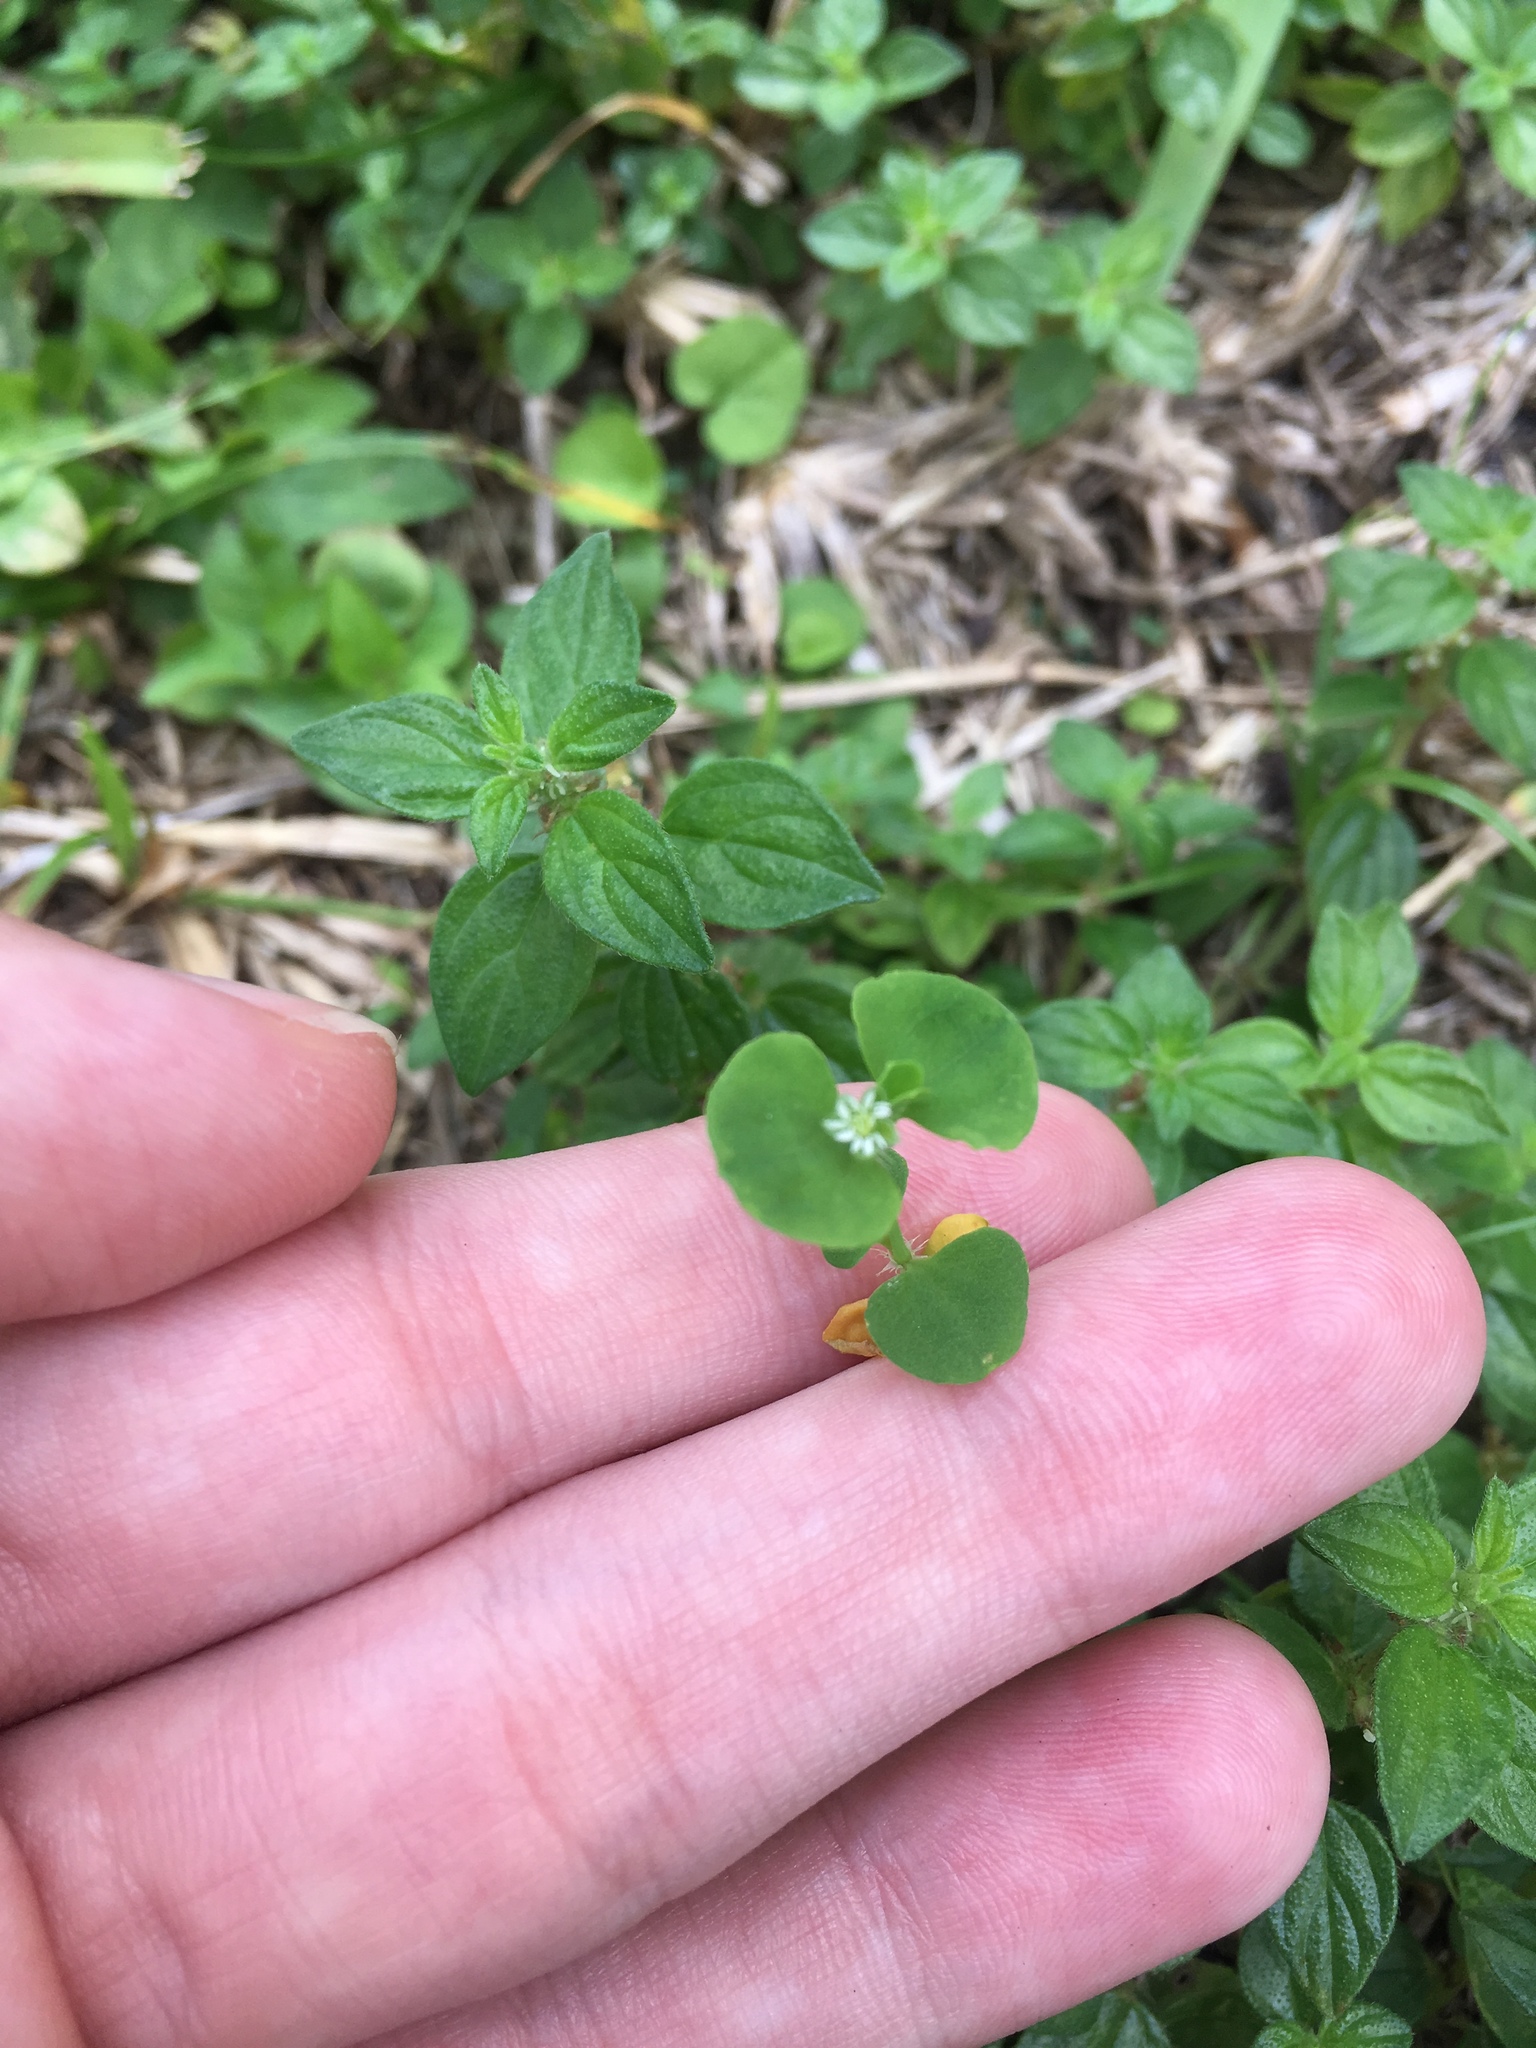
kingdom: Plantae
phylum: Tracheophyta
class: Magnoliopsida
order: Caryophyllales
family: Caryophyllaceae
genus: Drymaria
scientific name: Drymaria cordata
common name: Whitesnow
